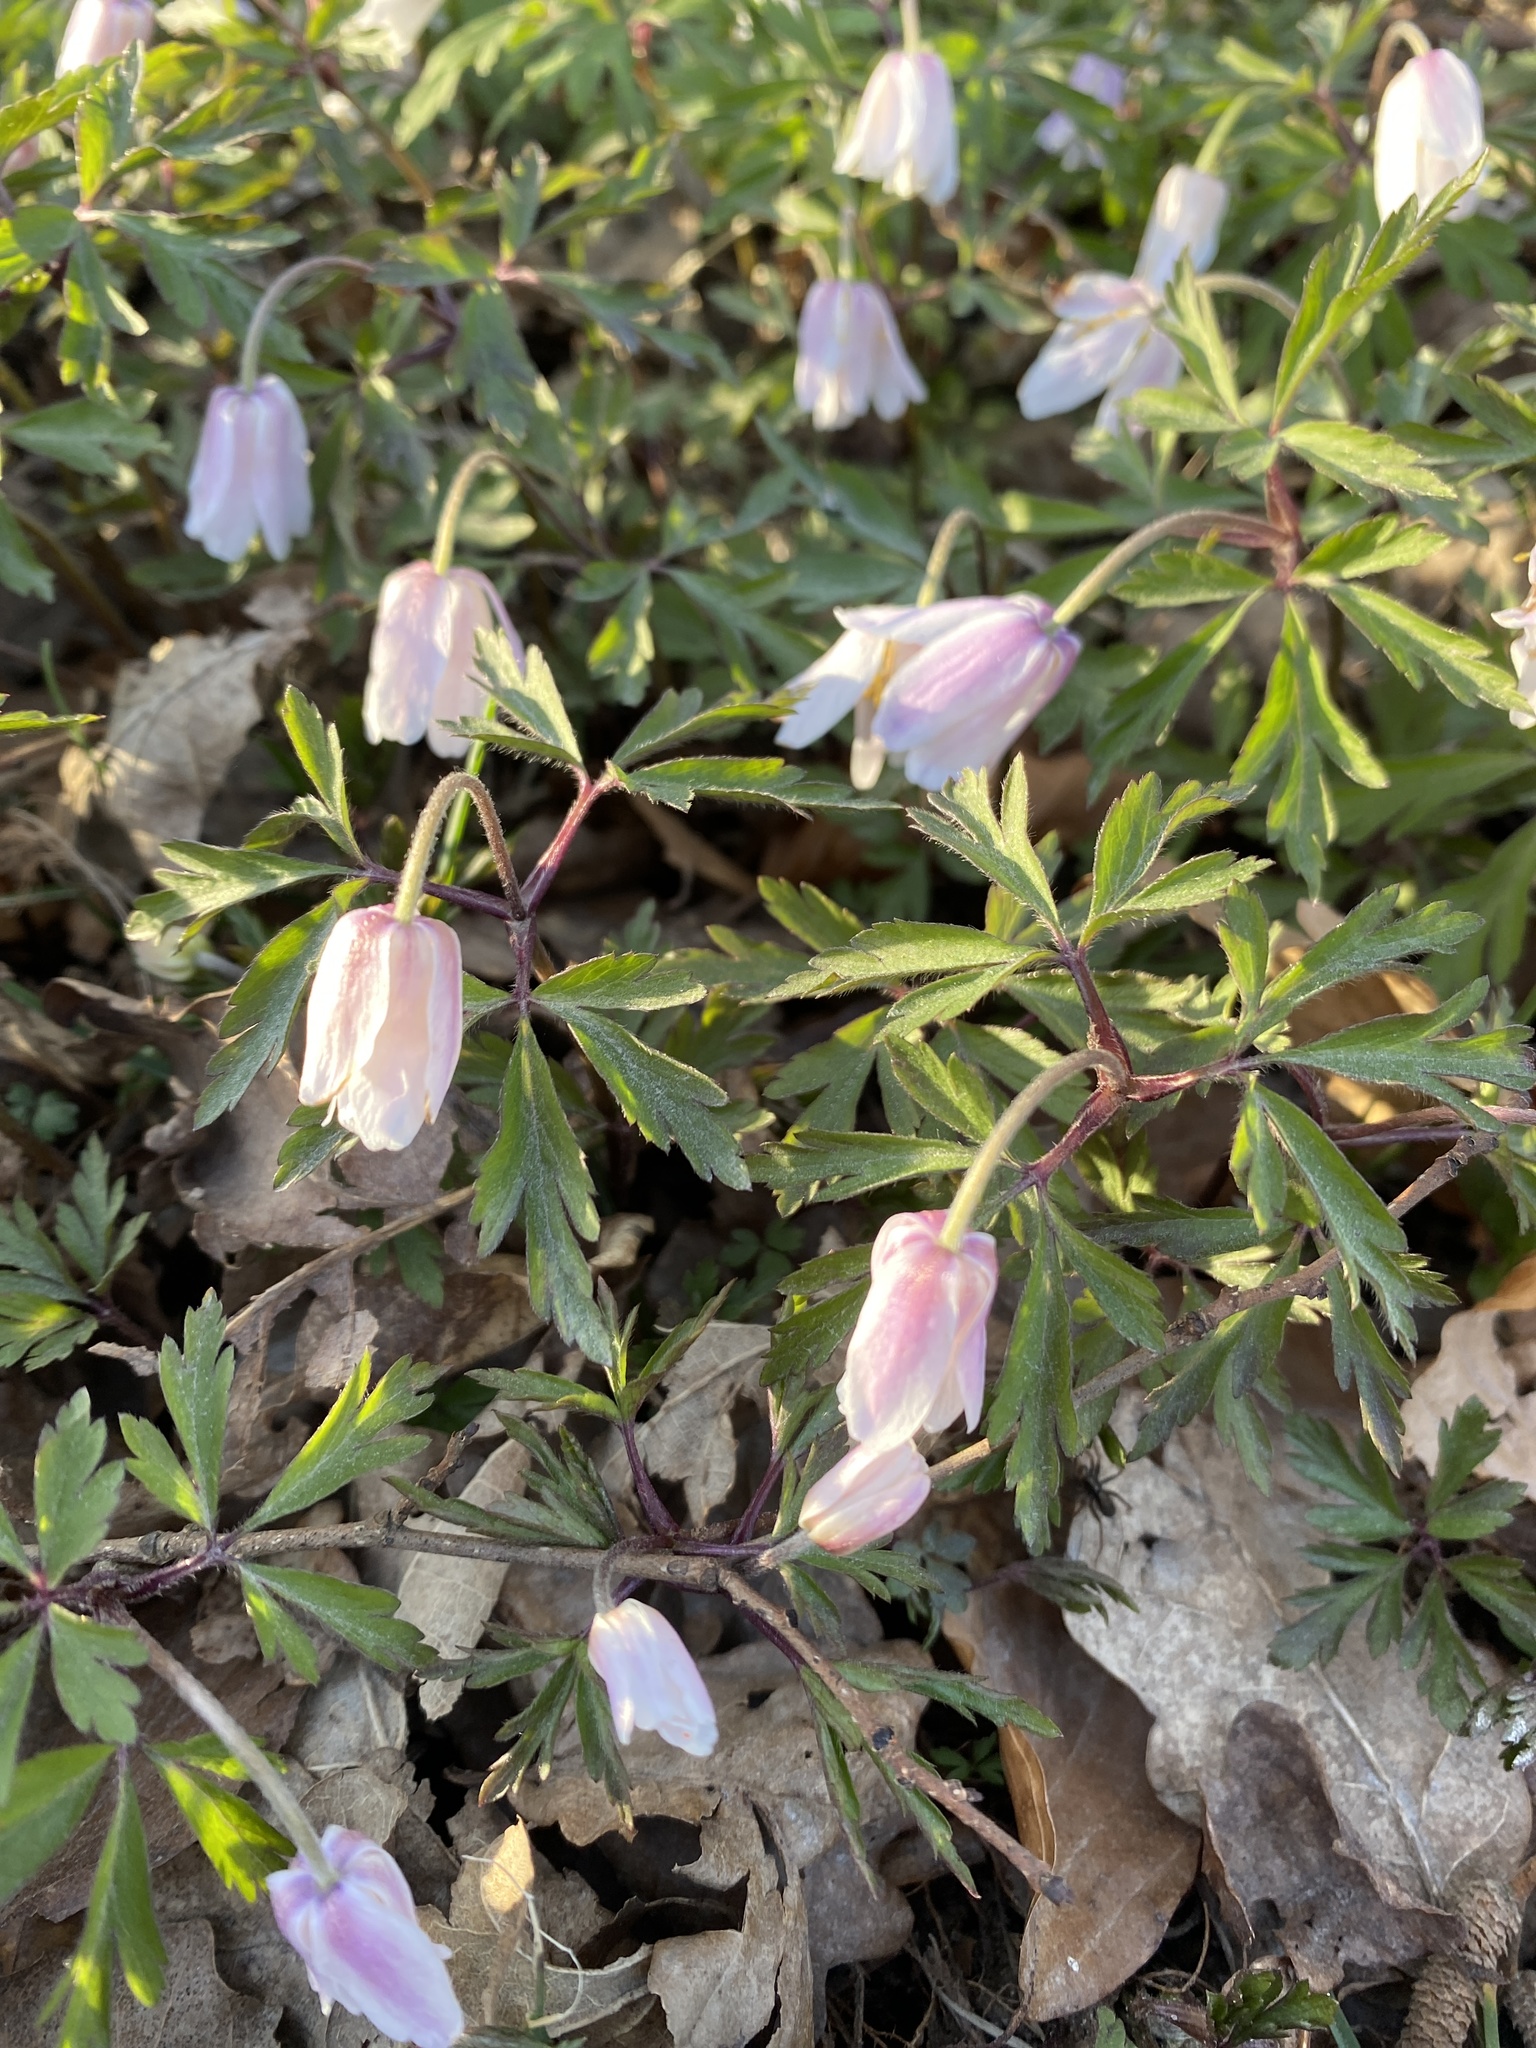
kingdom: Plantae
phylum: Tracheophyta
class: Magnoliopsida
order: Ranunculales
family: Ranunculaceae
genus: Anemone
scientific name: Anemone nemorosa
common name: Wood anemone
